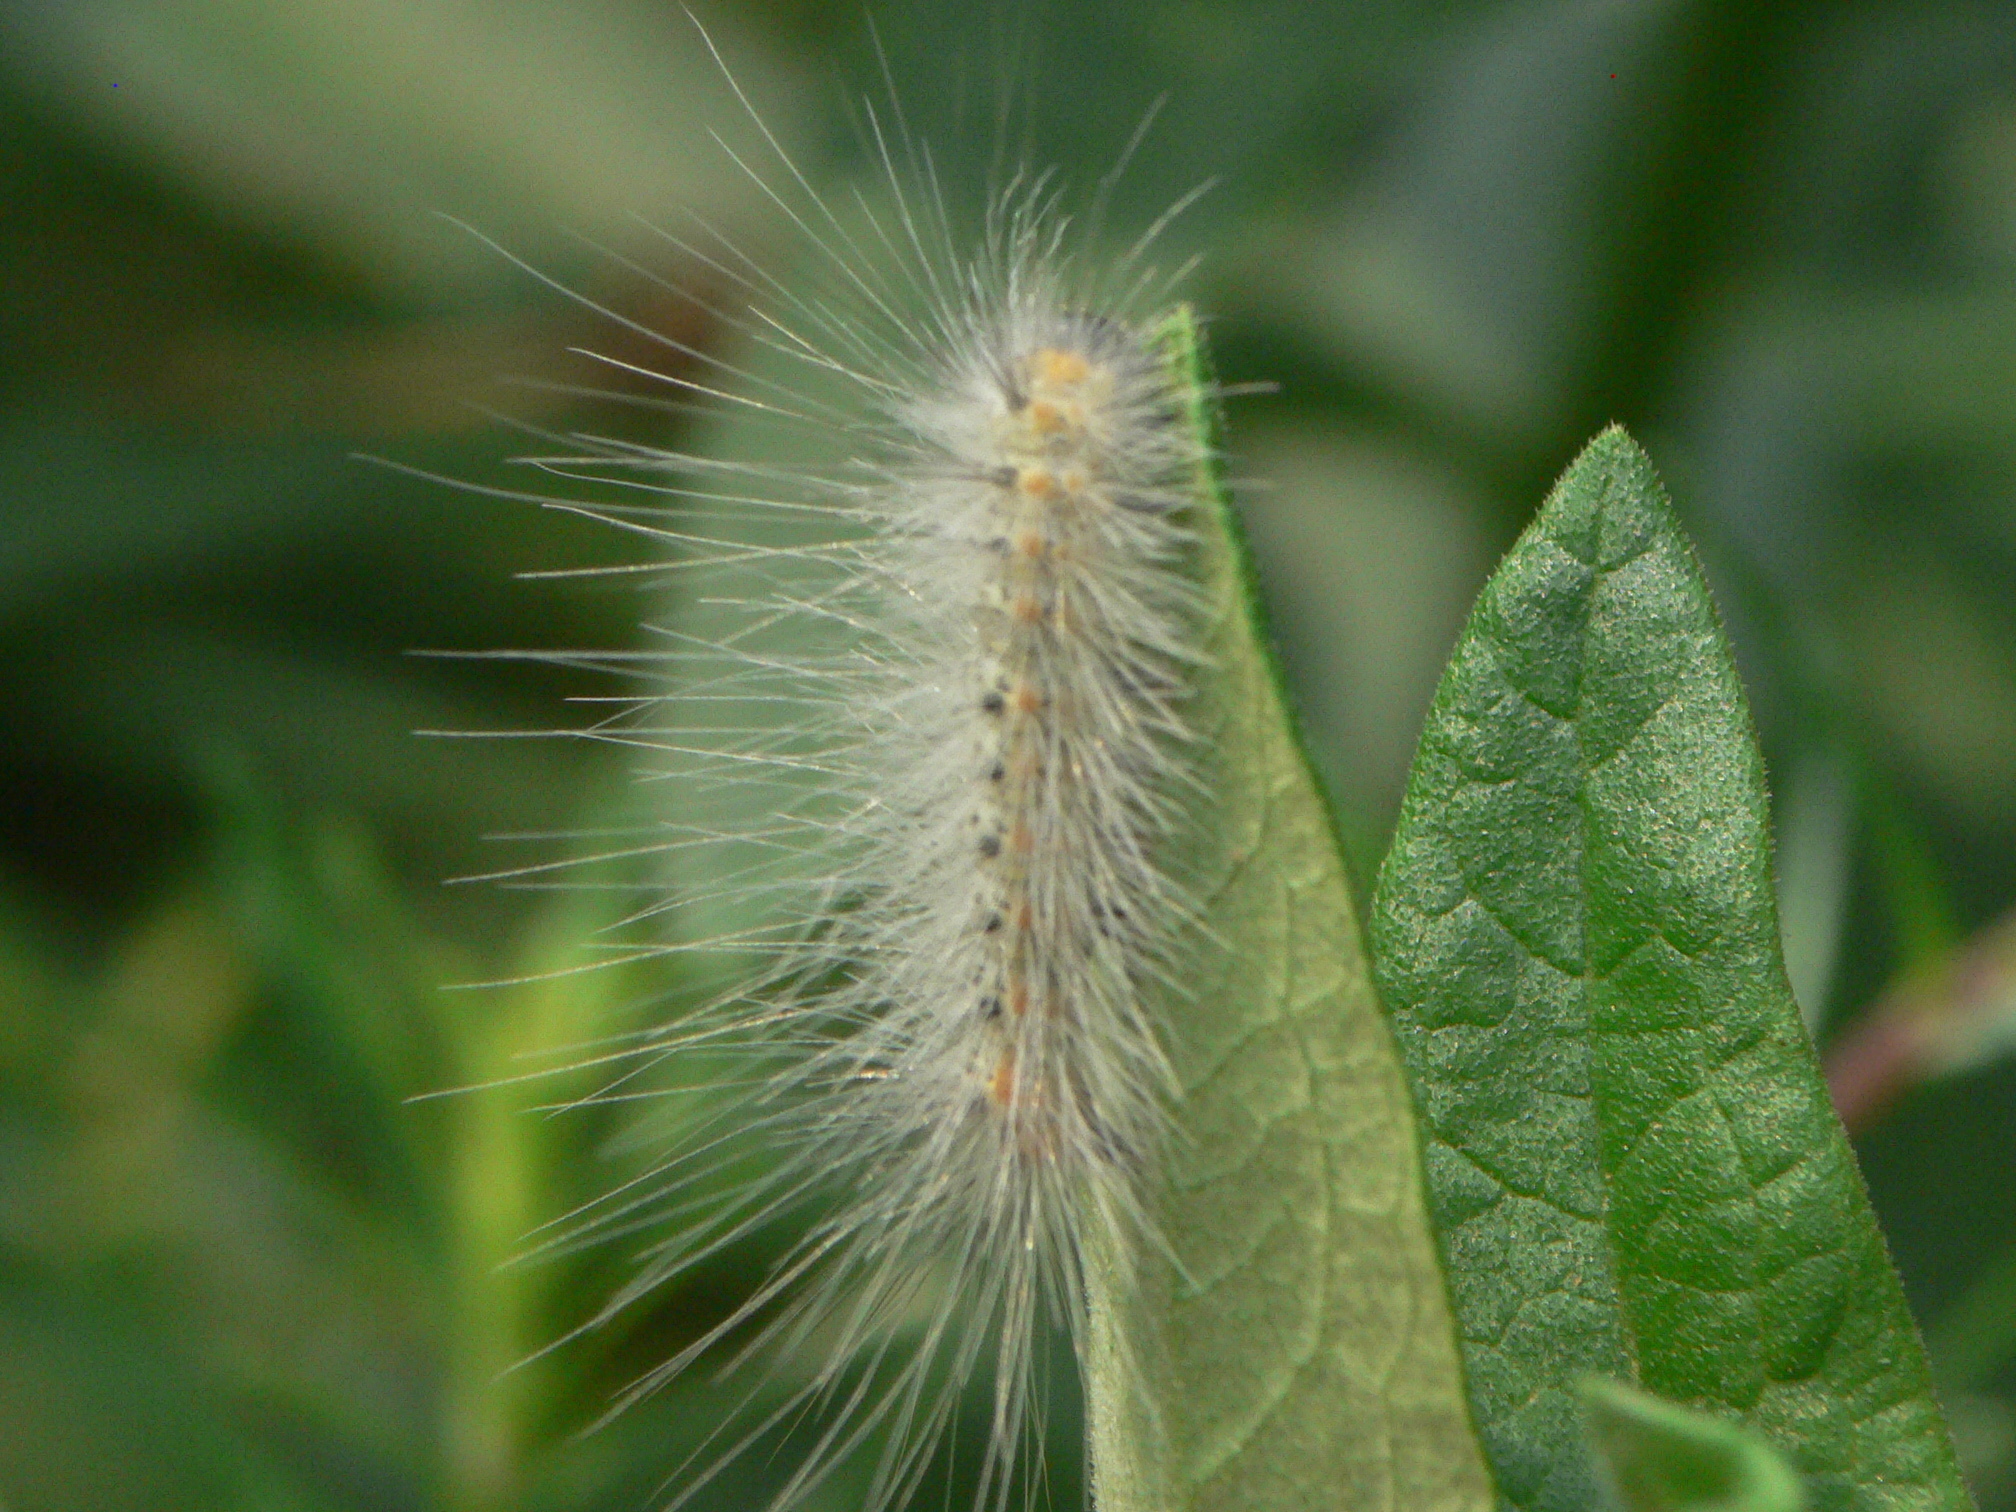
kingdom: Animalia
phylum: Arthropoda
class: Insecta
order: Lepidoptera
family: Erebidae
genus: Hyphantria
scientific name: Hyphantria cunea
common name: American white moth
